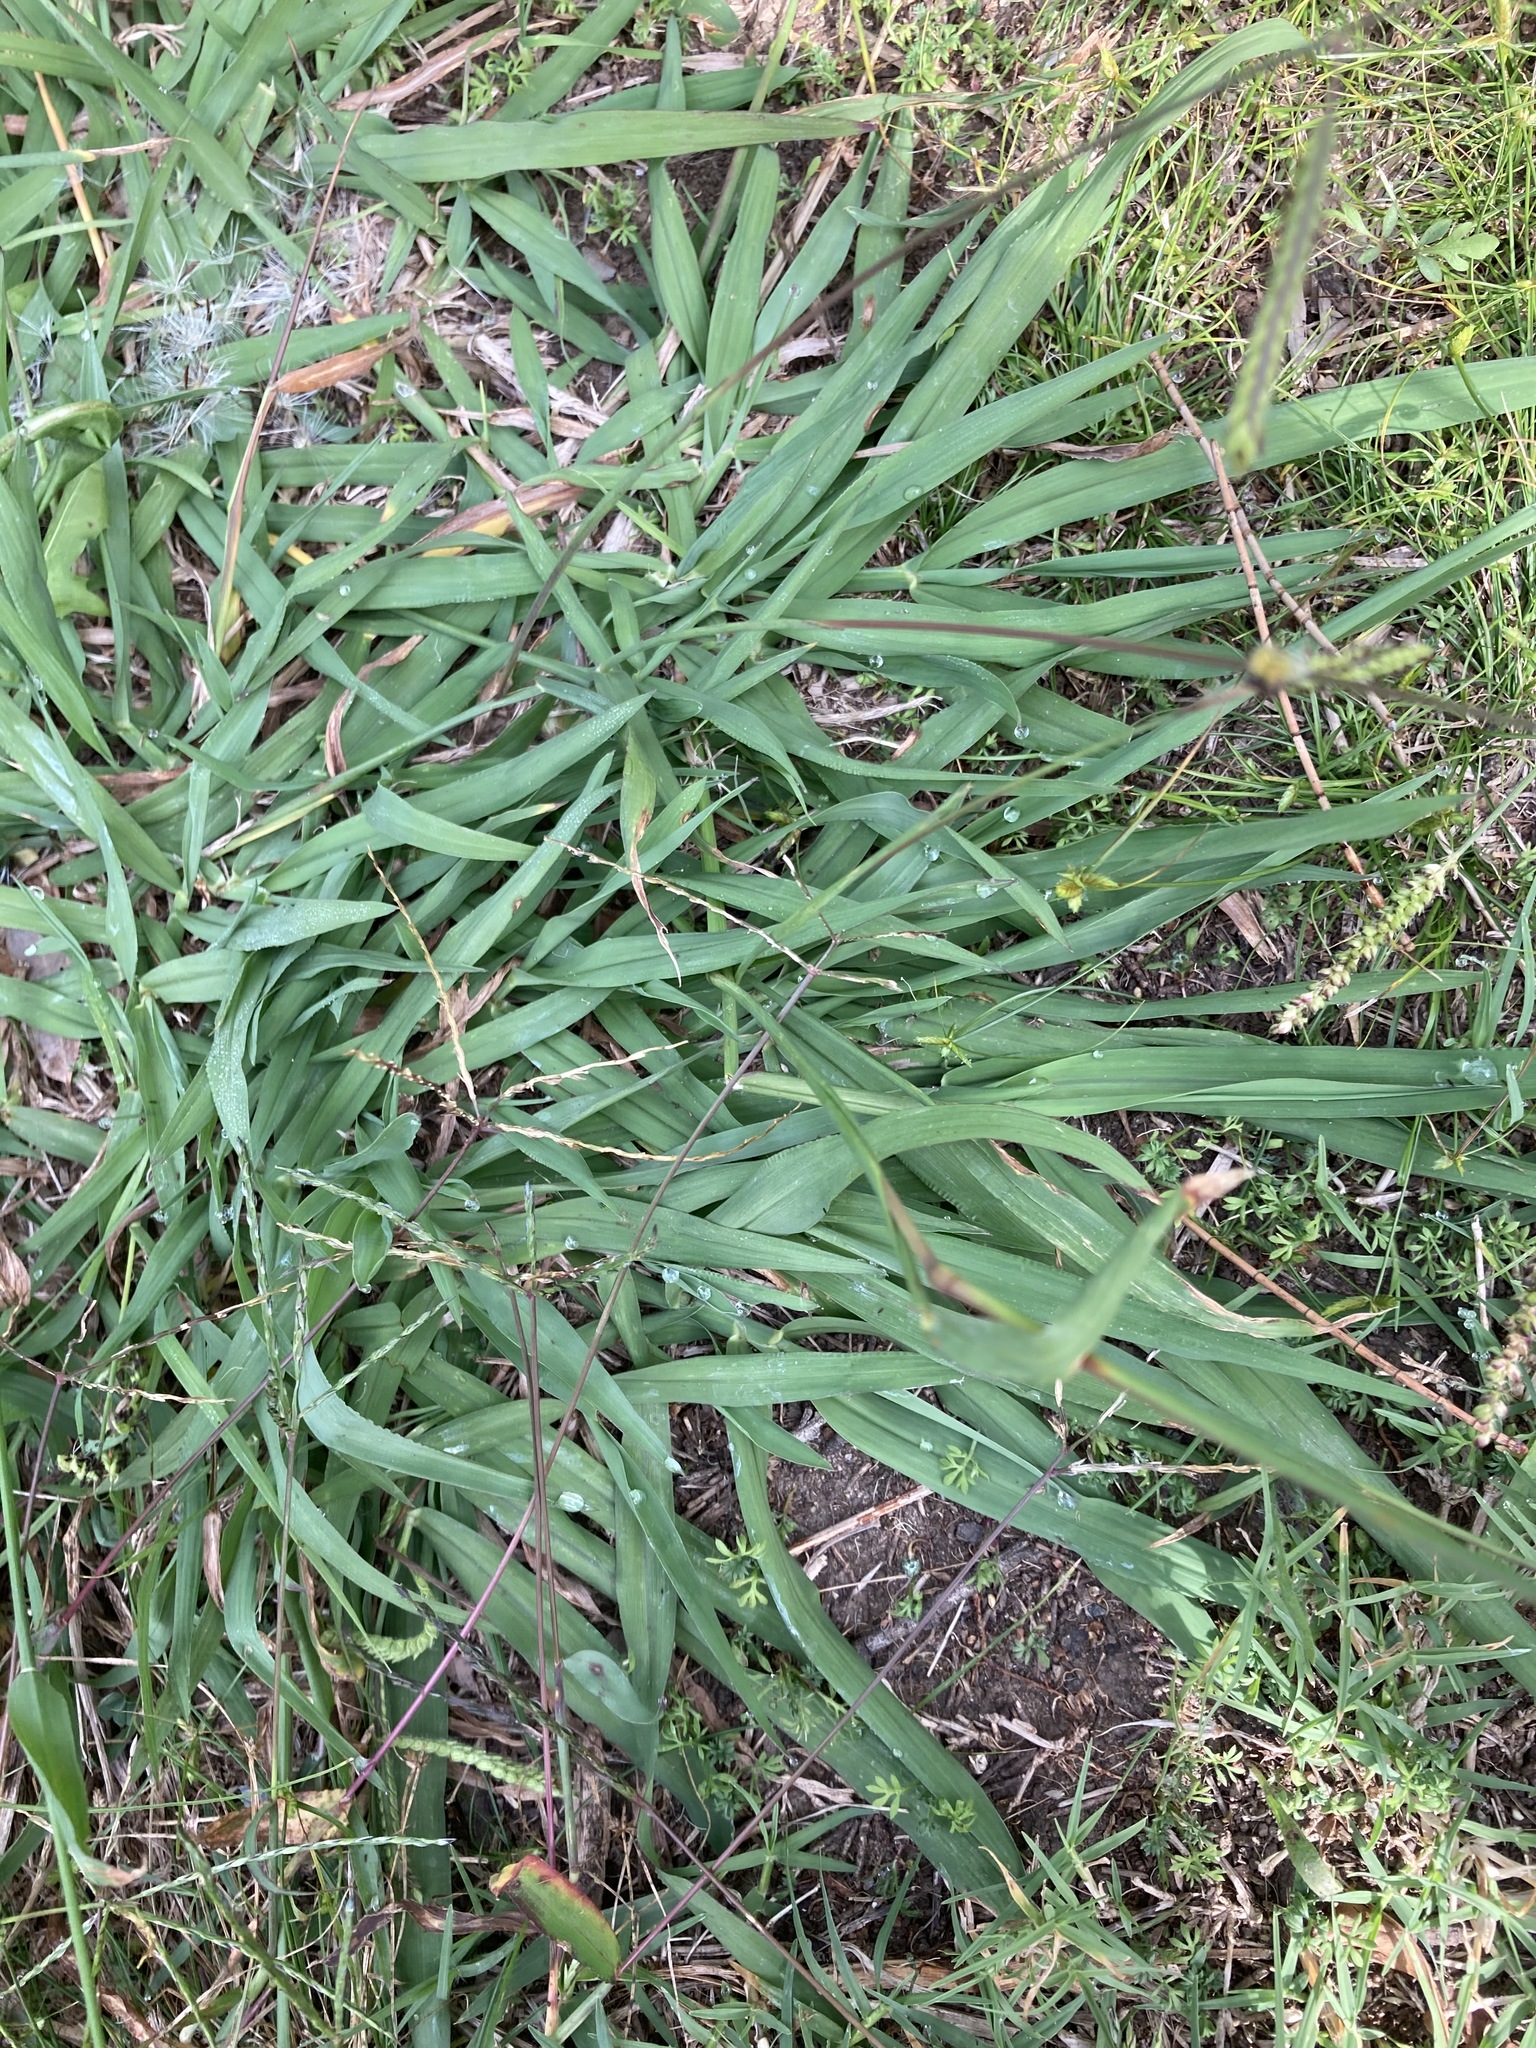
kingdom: Plantae
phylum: Tracheophyta
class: Liliopsida
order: Poales
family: Poaceae
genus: Paspalum
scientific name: Paspalum dilatatum
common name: Dallisgrass
